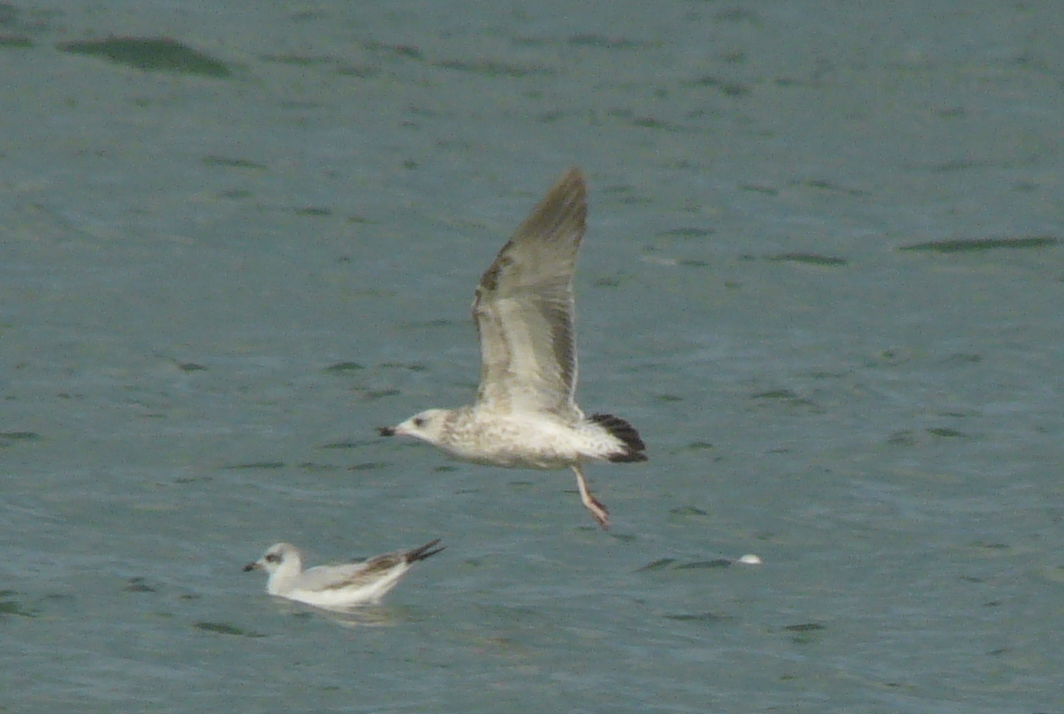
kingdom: Animalia
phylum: Chordata
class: Aves
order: Charadriiformes
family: Laridae
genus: Larus
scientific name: Larus cachinnans
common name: Caspian gull
